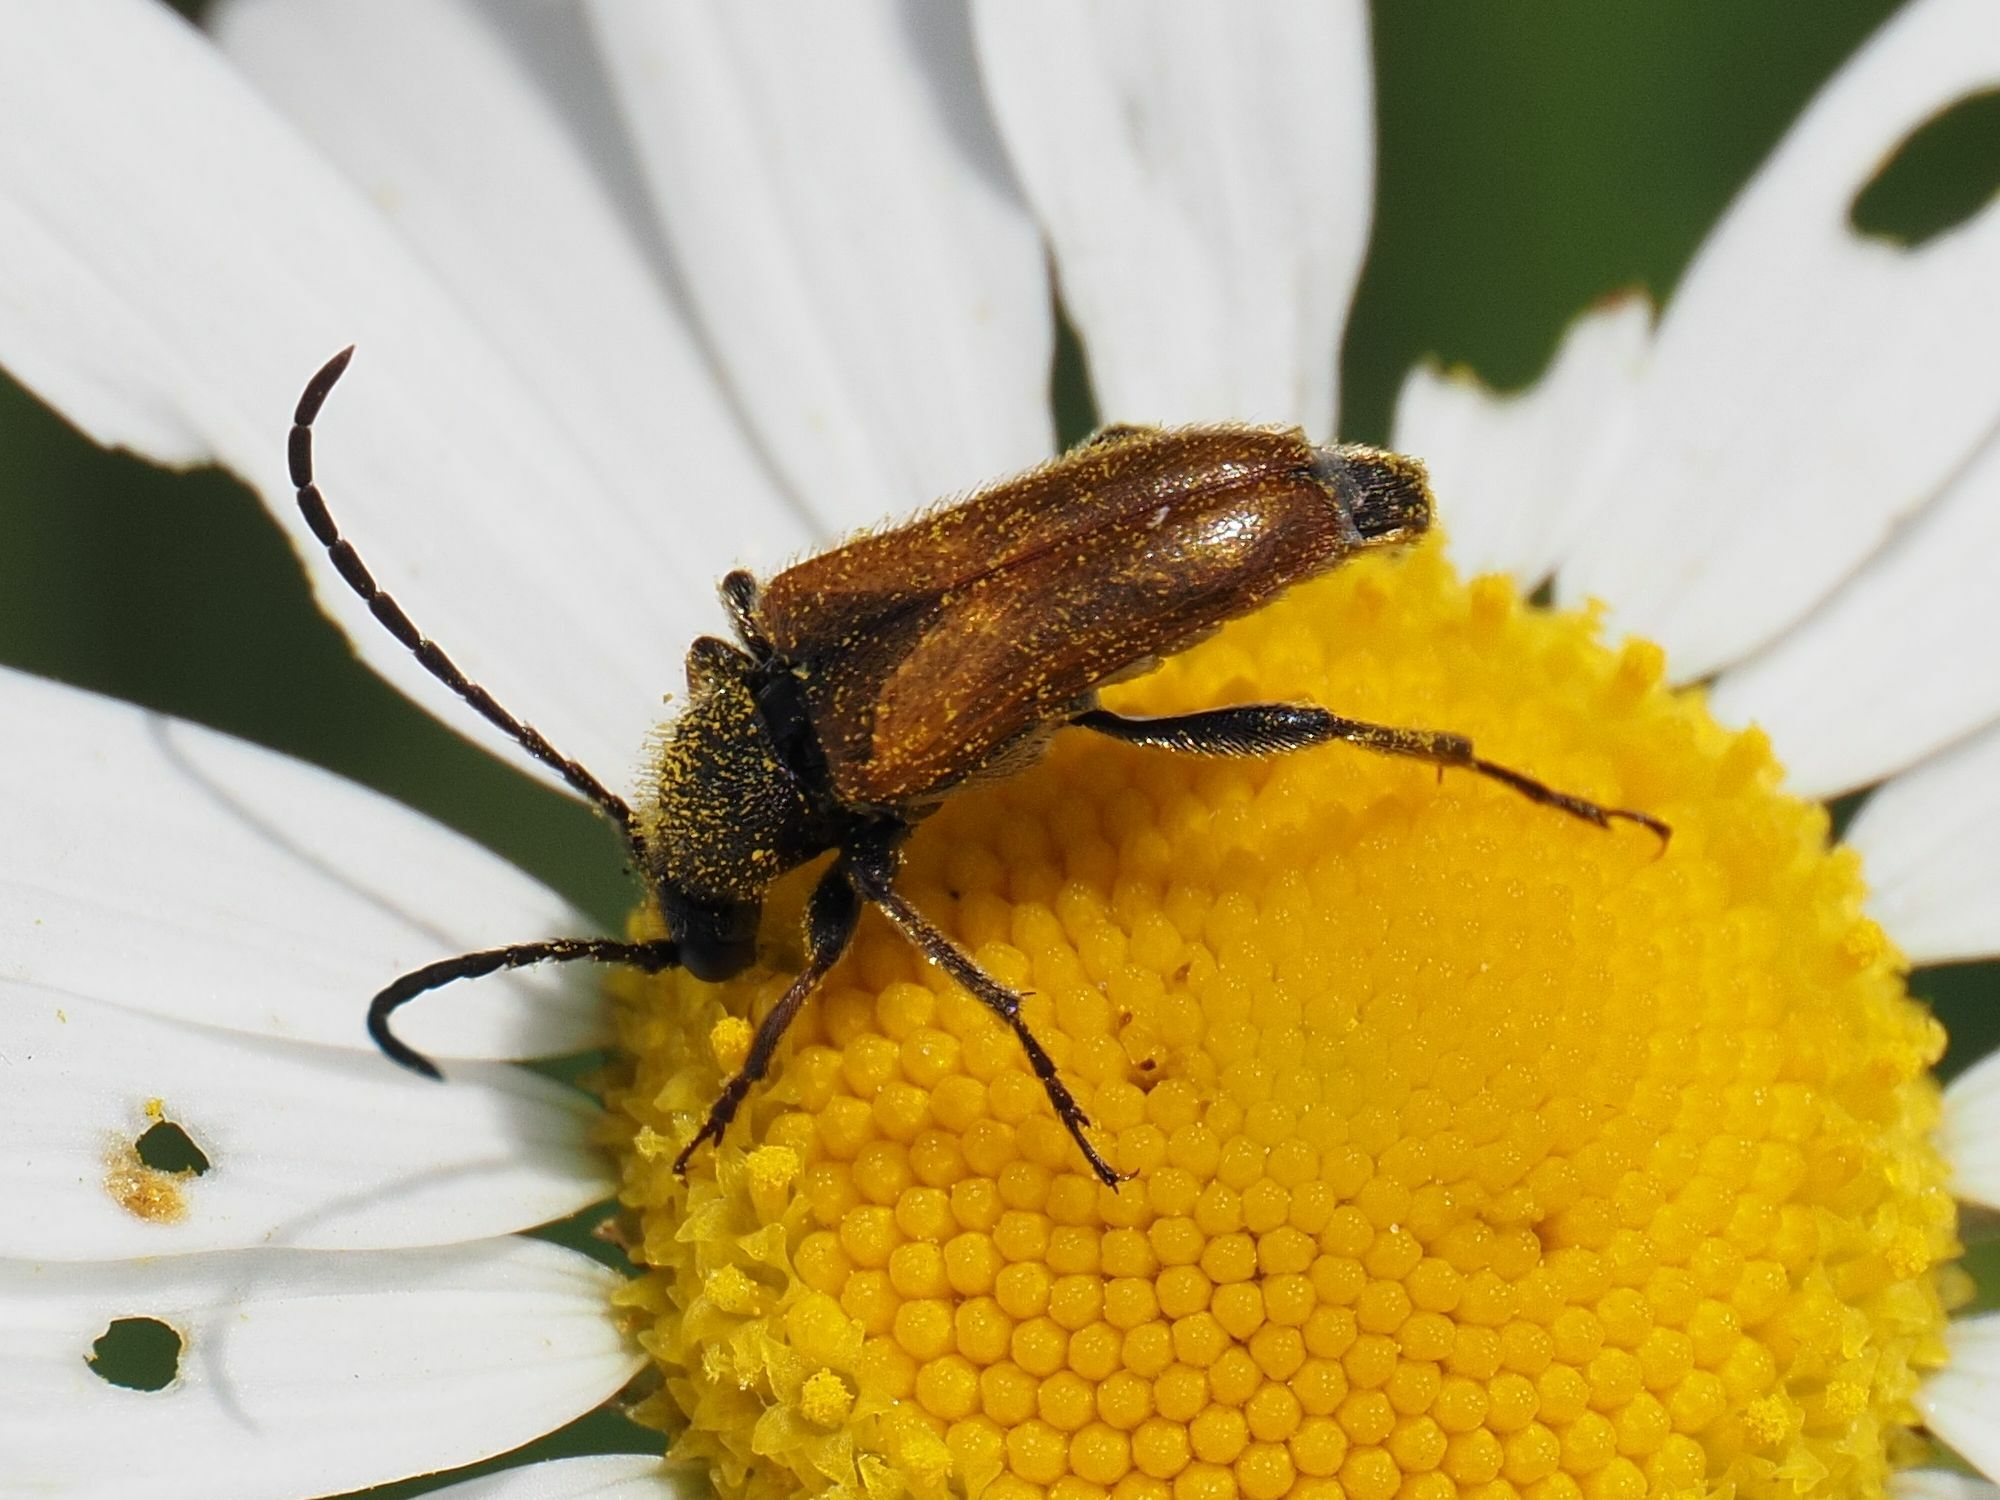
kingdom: Animalia
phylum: Arthropoda
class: Insecta
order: Coleoptera
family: Cerambycidae
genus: Pseudovadonia
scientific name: Pseudovadonia livida
